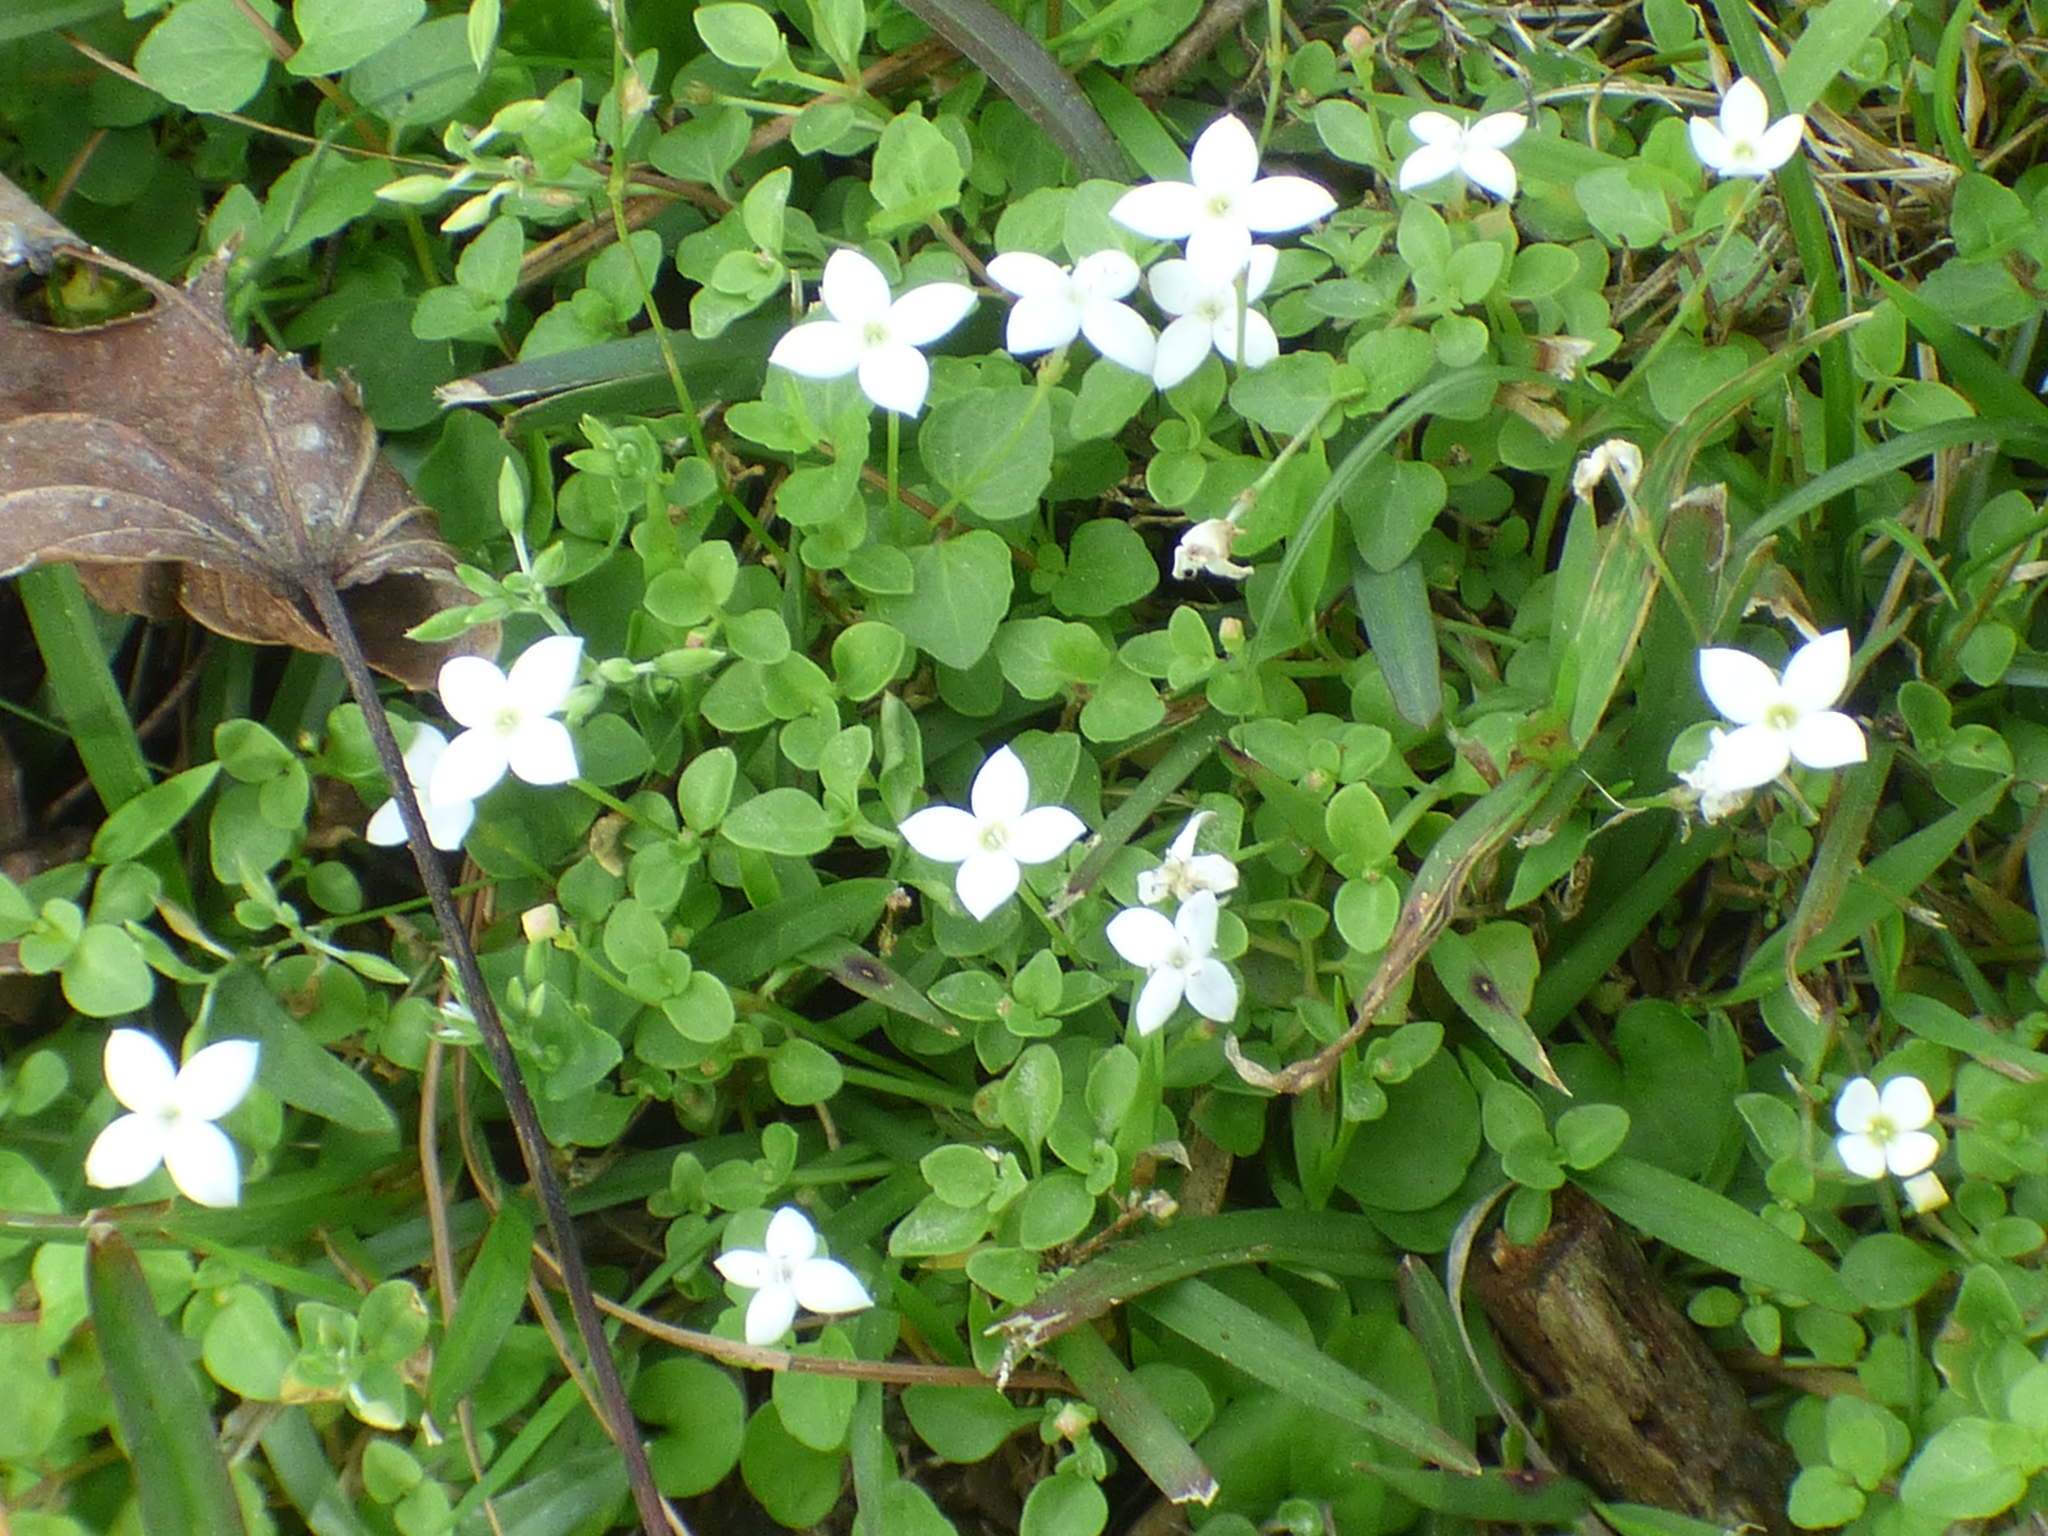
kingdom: Plantae
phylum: Tracheophyta
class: Magnoliopsida
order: Gentianales
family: Rubiaceae
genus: Houstonia
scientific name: Houstonia procumbens
